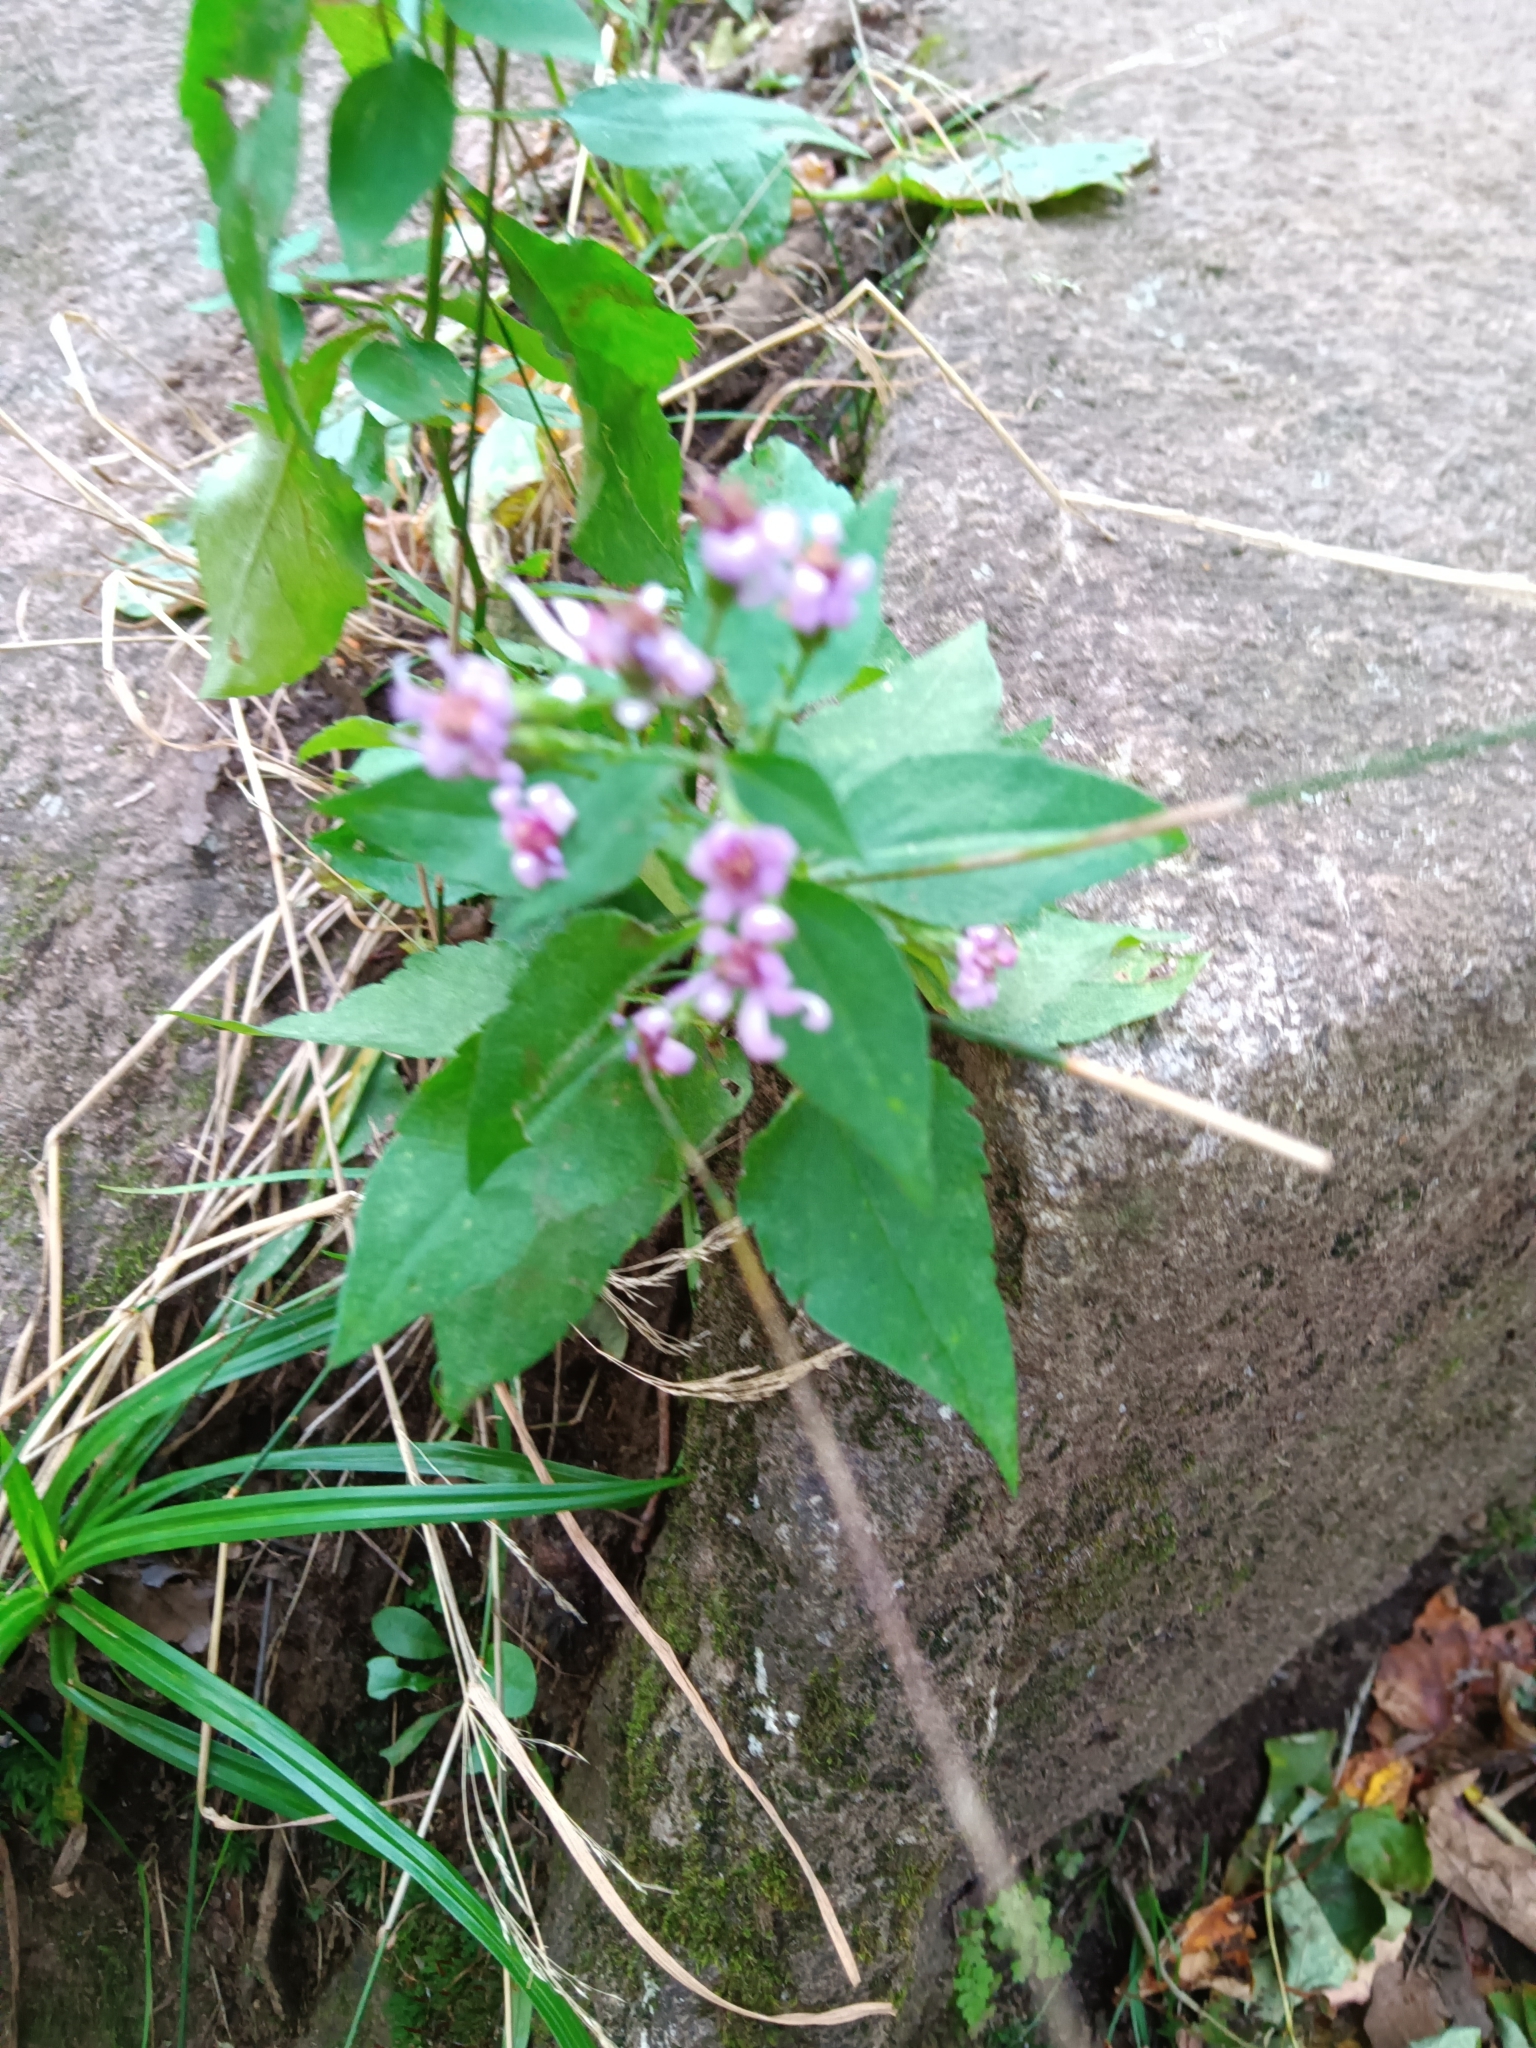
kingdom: Plantae
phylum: Tracheophyta
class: Magnoliopsida
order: Asterales
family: Asteraceae
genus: Symphyotrichum
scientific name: Symphyotrichum cordifolium
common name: Beeweed
